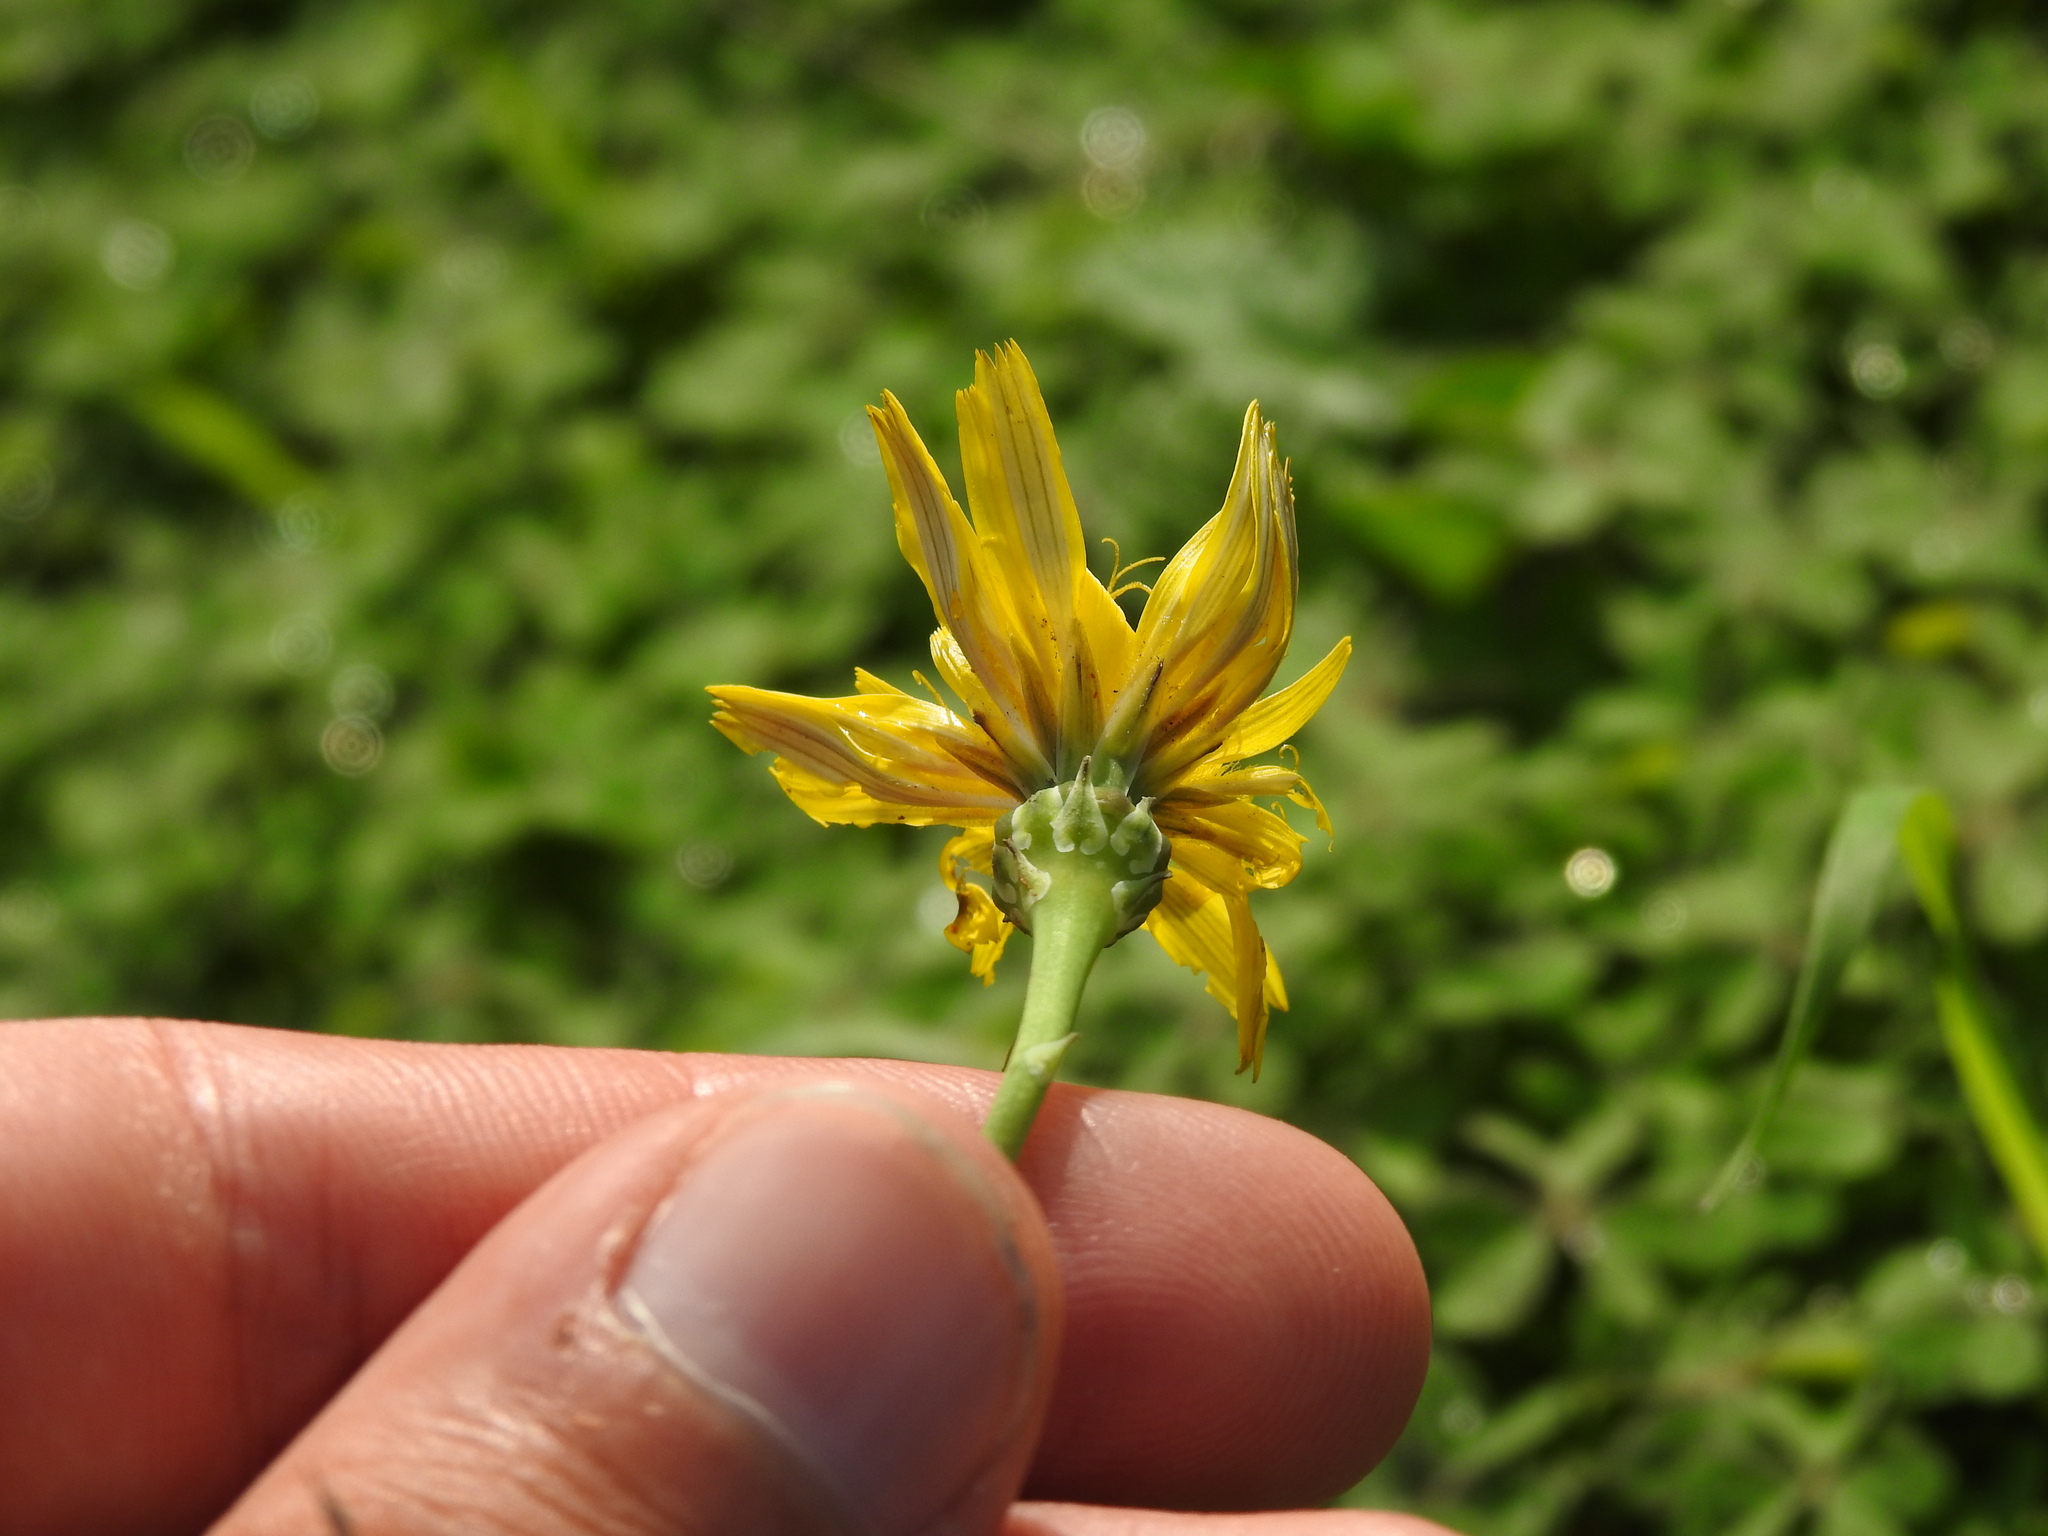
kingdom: Plantae
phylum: Tracheophyta
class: Magnoliopsida
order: Asterales
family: Asteraceae
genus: Reichardia
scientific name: Reichardia picroides
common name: Common brighteyes
